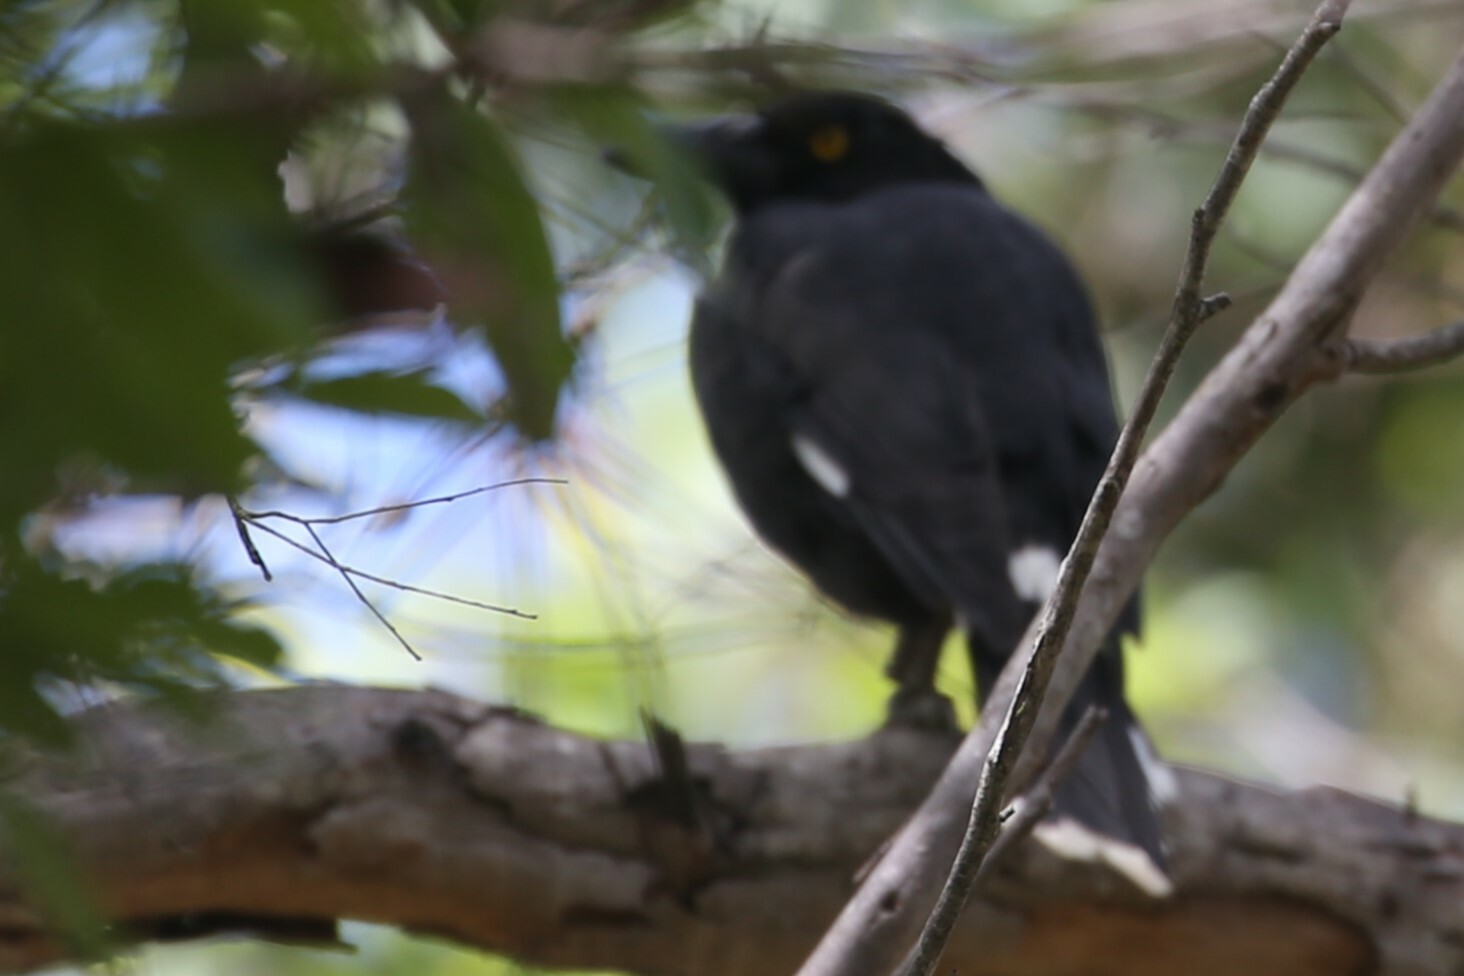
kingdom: Animalia
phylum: Chordata
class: Aves
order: Passeriformes
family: Cracticidae
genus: Strepera
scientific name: Strepera graculina
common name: Pied currawong
